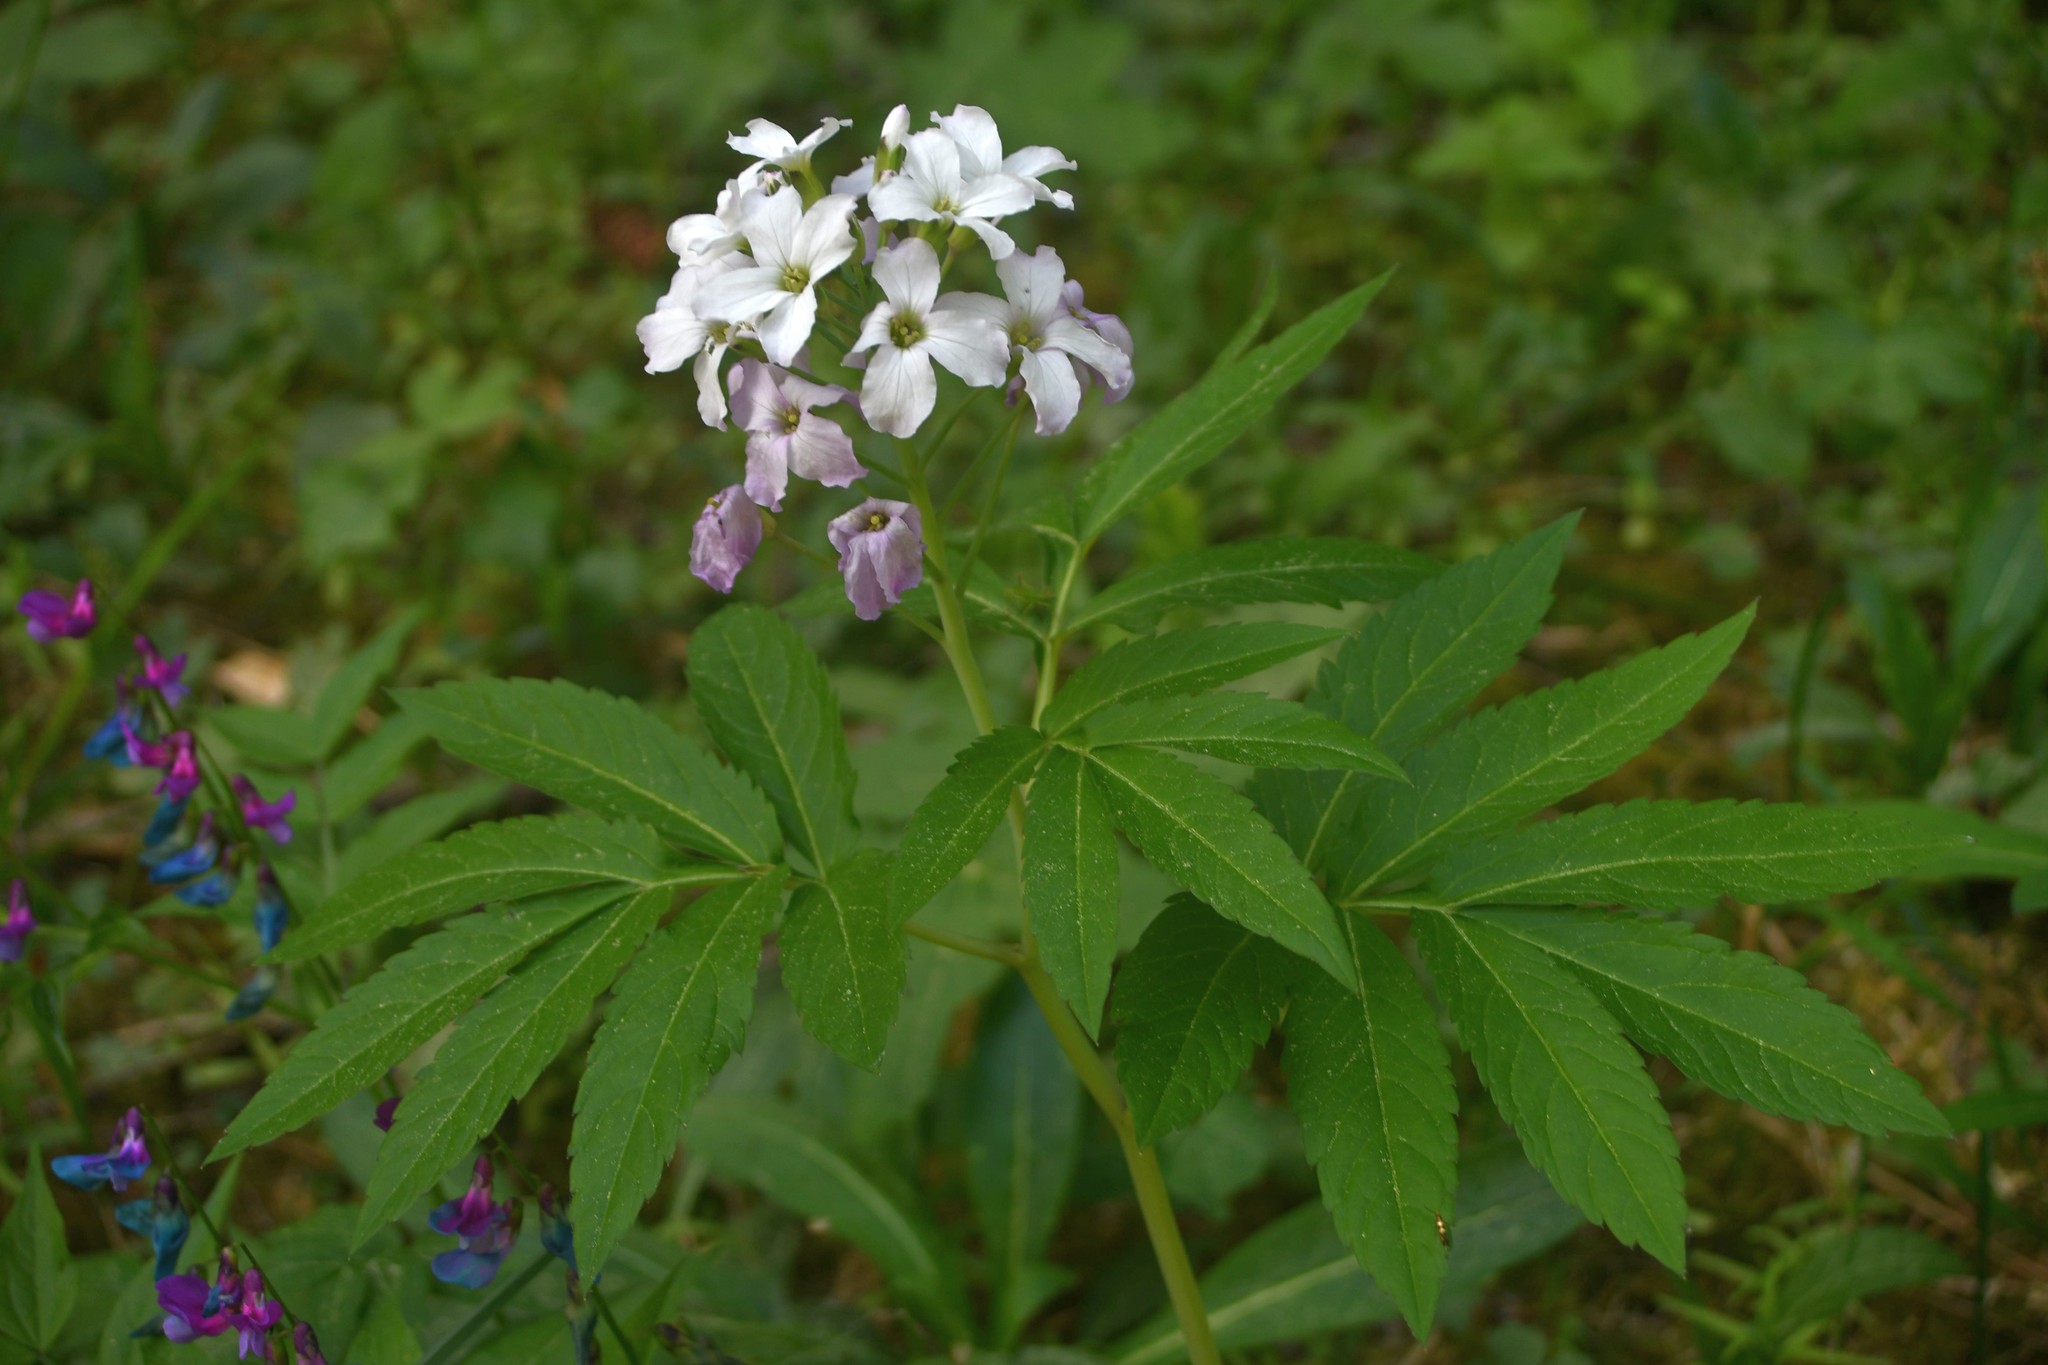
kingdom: Plantae
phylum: Tracheophyta
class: Magnoliopsida
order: Brassicales
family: Brassicaceae
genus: Cardamine
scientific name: Cardamine heptaphylla
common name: Pinnate coralroot
